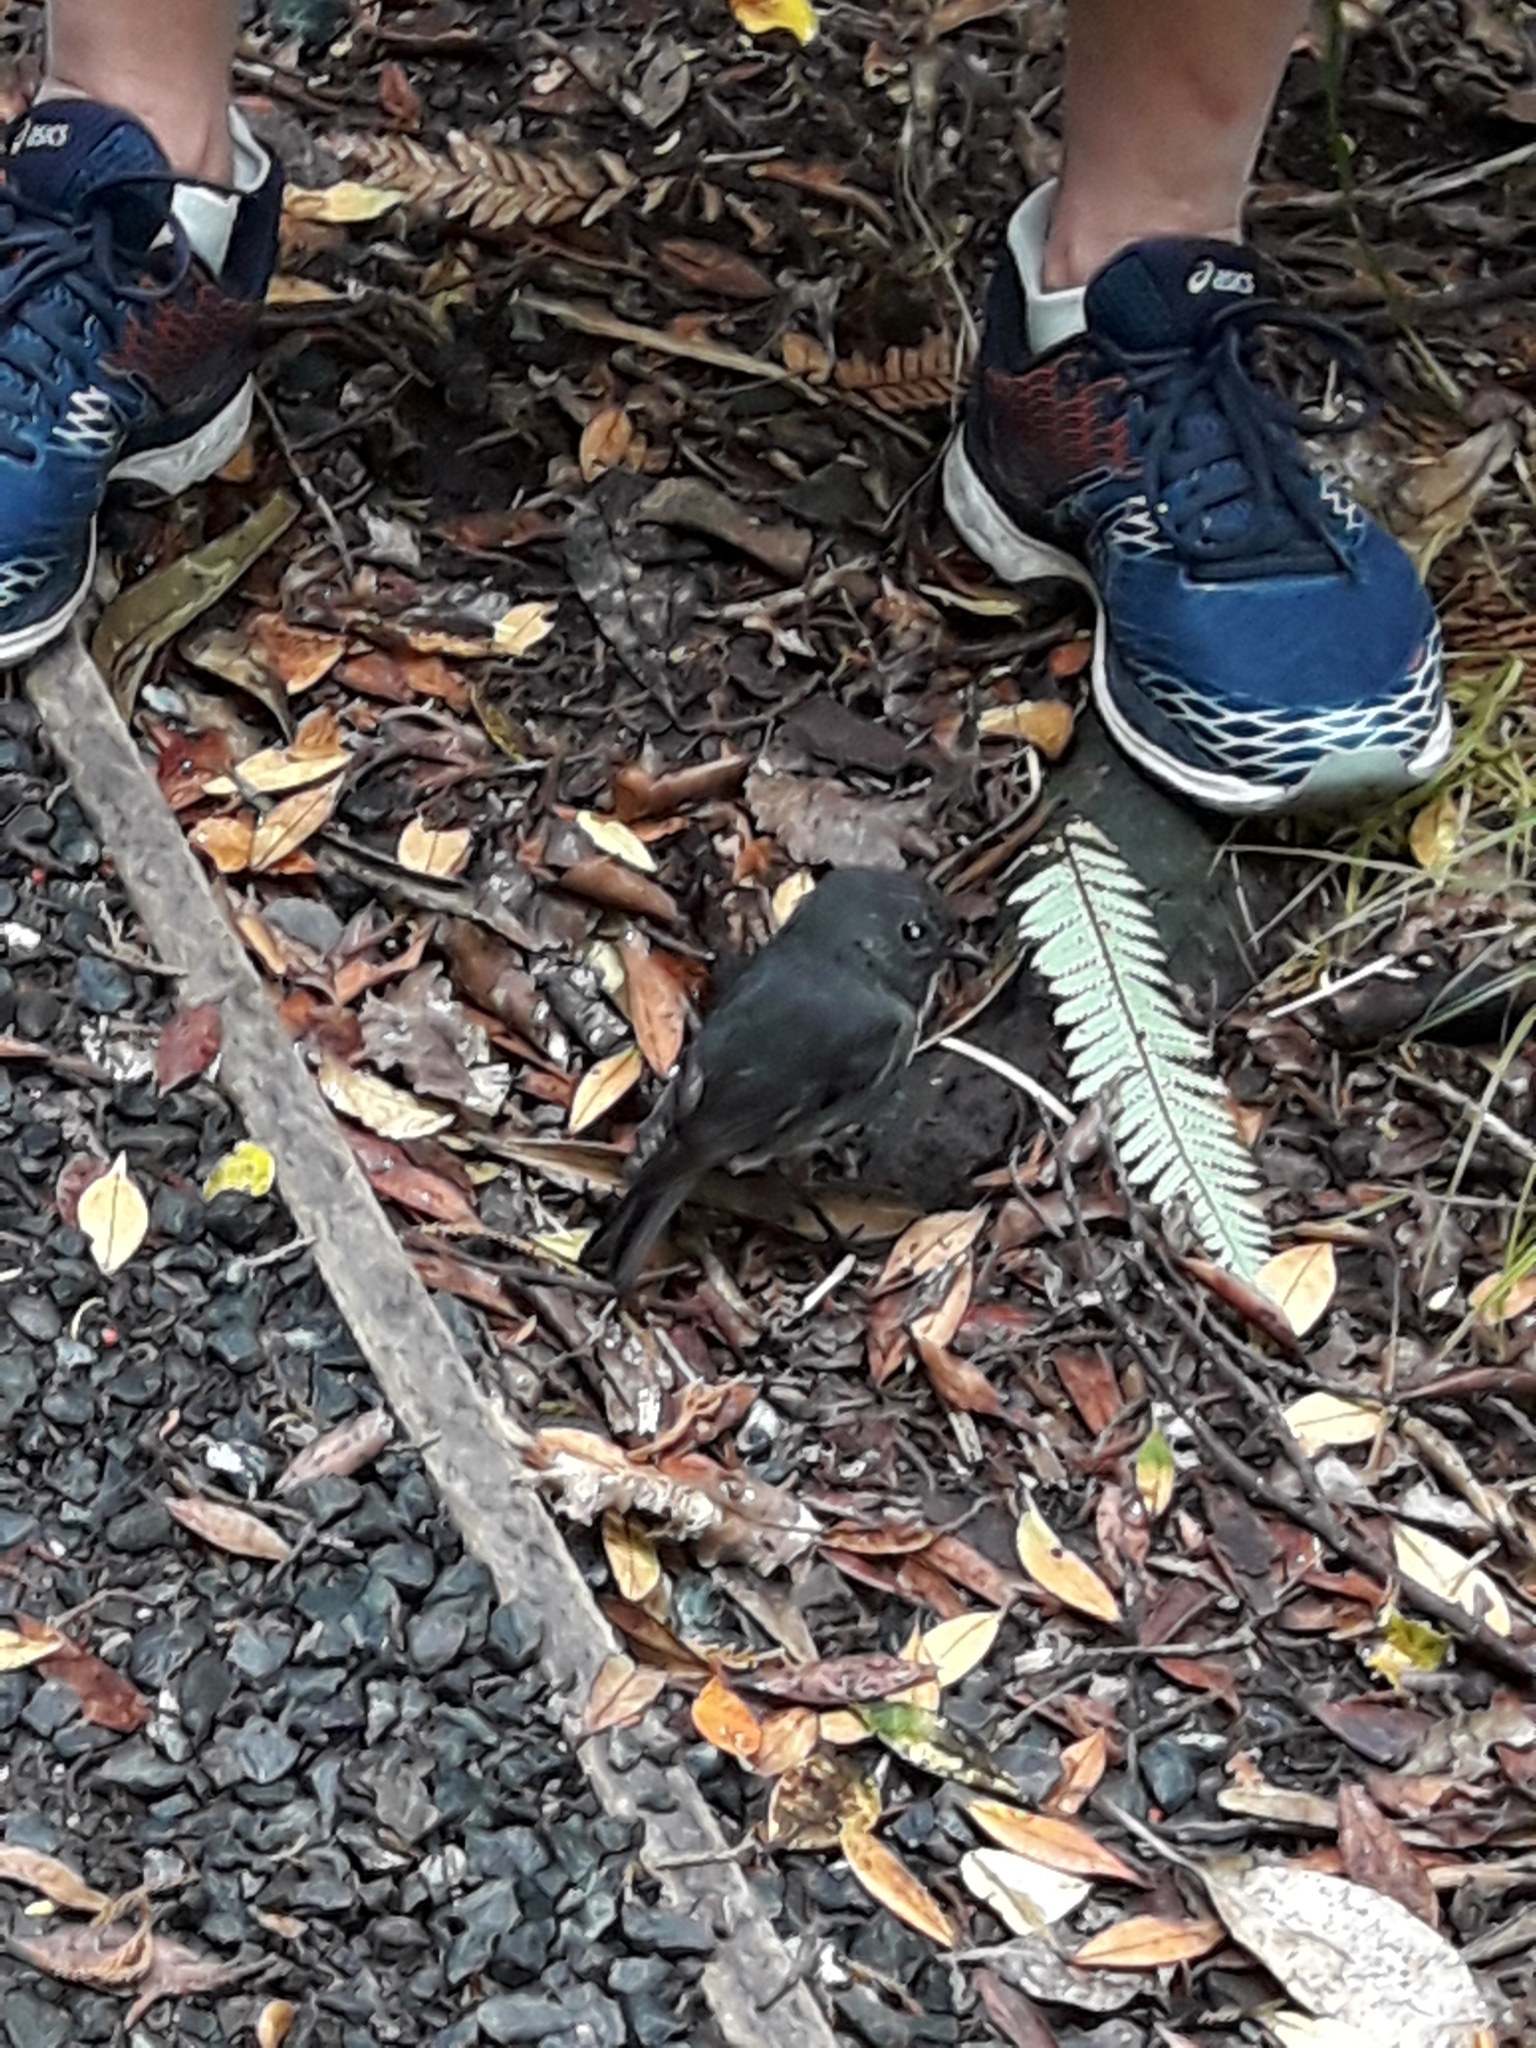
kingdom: Animalia
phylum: Chordata
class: Aves
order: Passeriformes
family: Petroicidae
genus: Petroica
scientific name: Petroica australis
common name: New zealand robin
